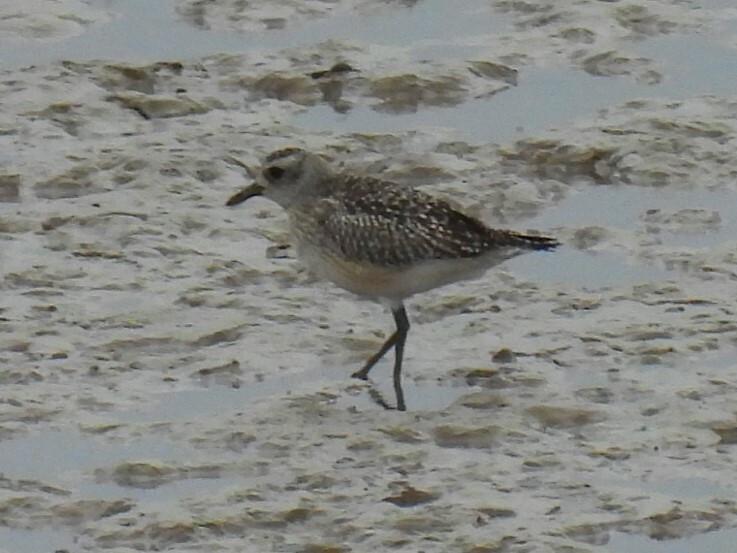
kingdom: Animalia
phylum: Chordata
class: Aves
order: Charadriiformes
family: Charadriidae
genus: Pluvialis
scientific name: Pluvialis squatarola
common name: Grey plover
